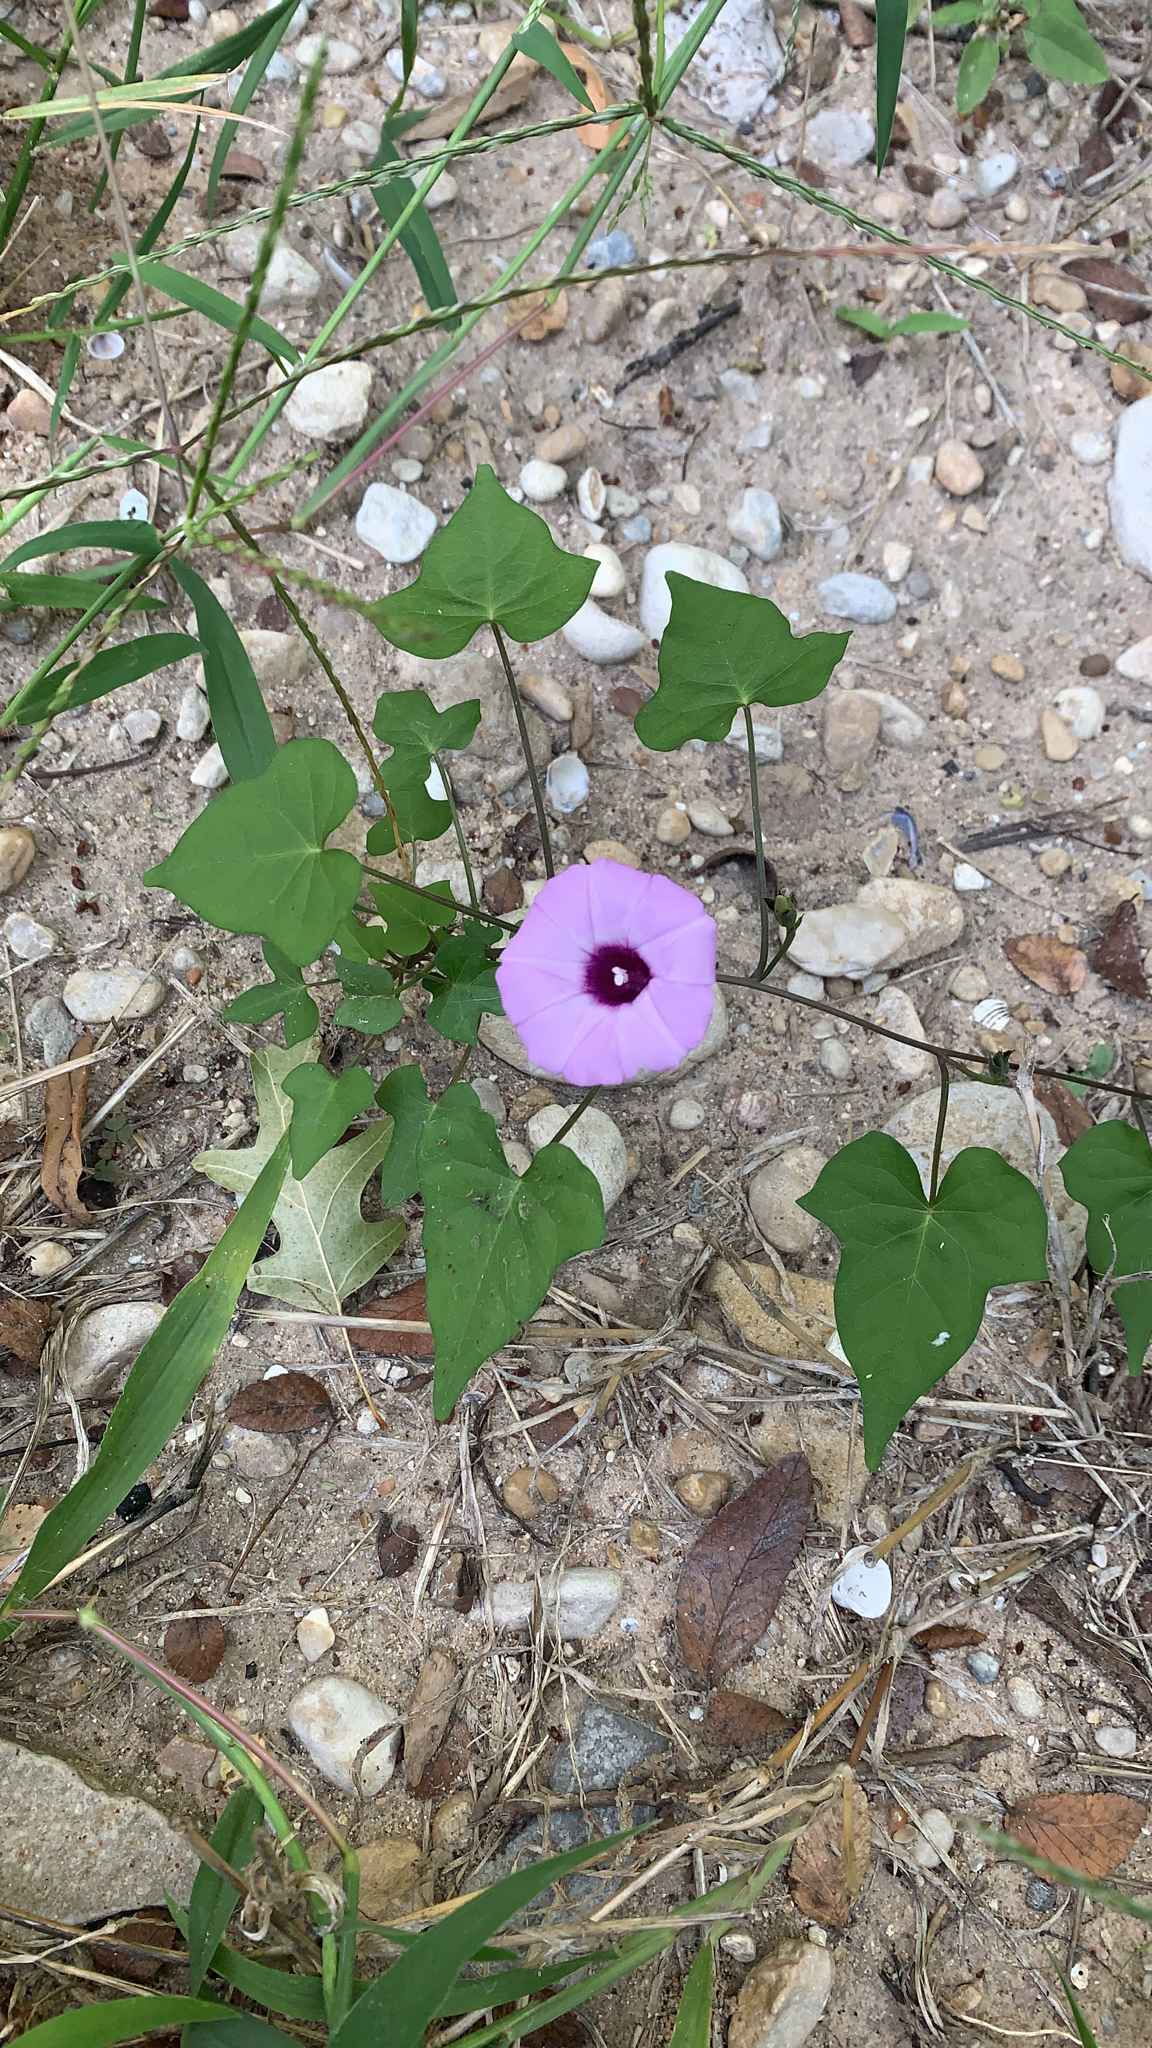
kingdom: Plantae
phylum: Tracheophyta
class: Magnoliopsida
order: Solanales
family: Convolvulaceae
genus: Ipomoea
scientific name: Ipomoea cordatotriloba
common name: Cotton morning glory
